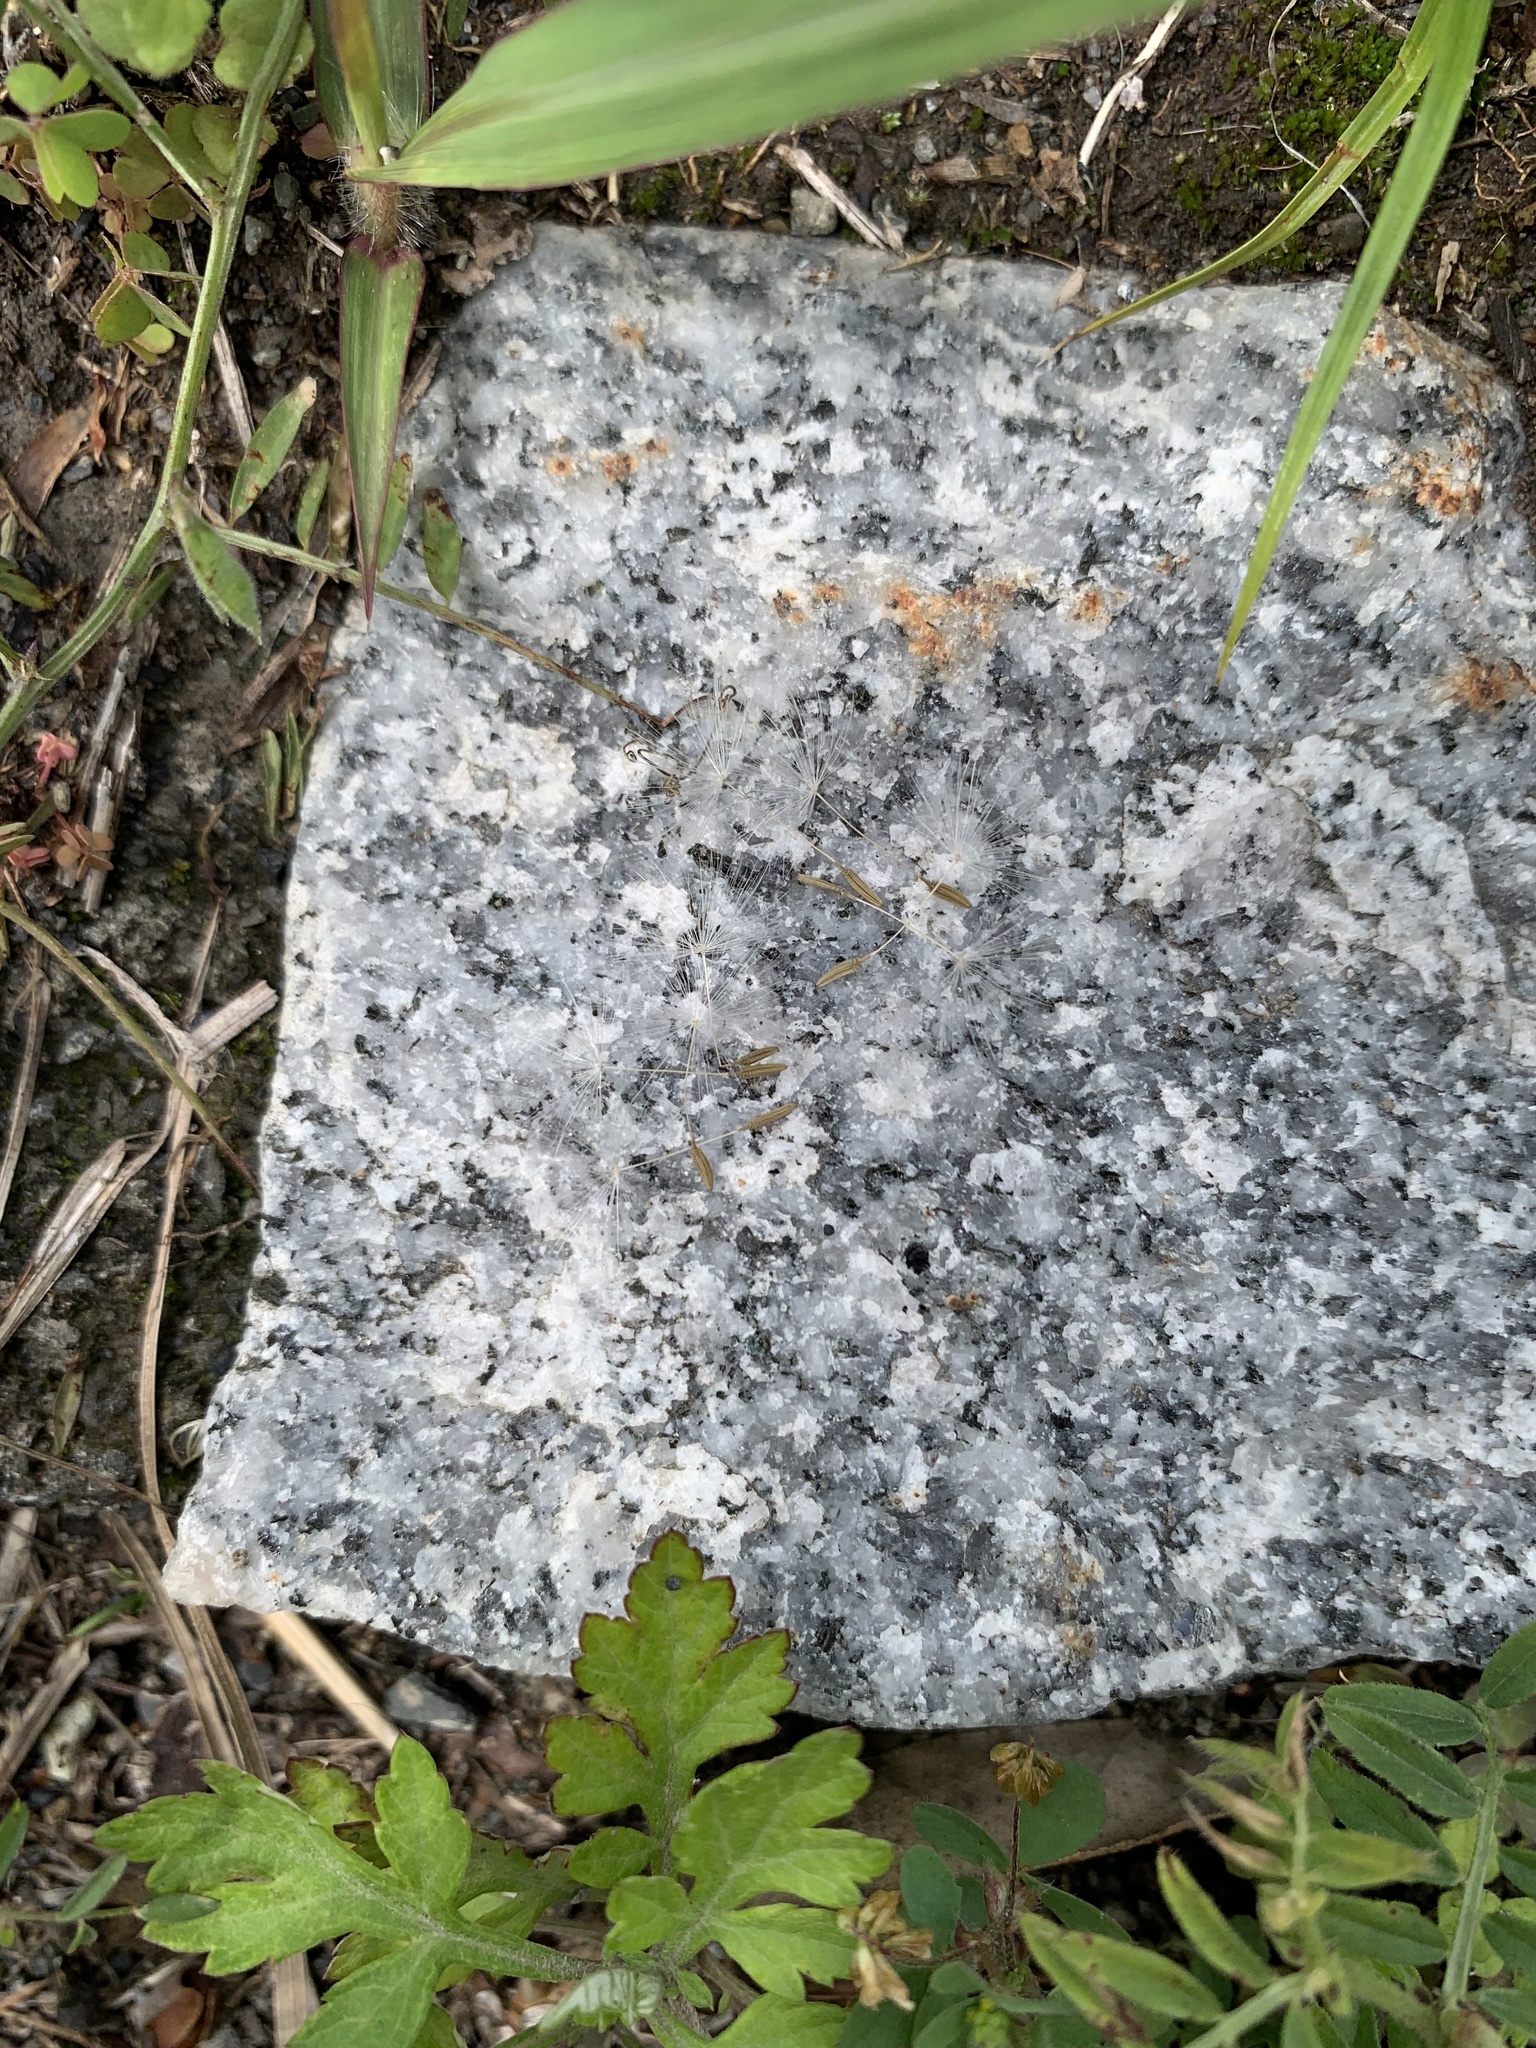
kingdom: Plantae
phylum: Tracheophyta
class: Magnoliopsida
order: Asterales
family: Asteraceae
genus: Taraxacum
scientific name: Taraxacum officinale
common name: Common dandelion
